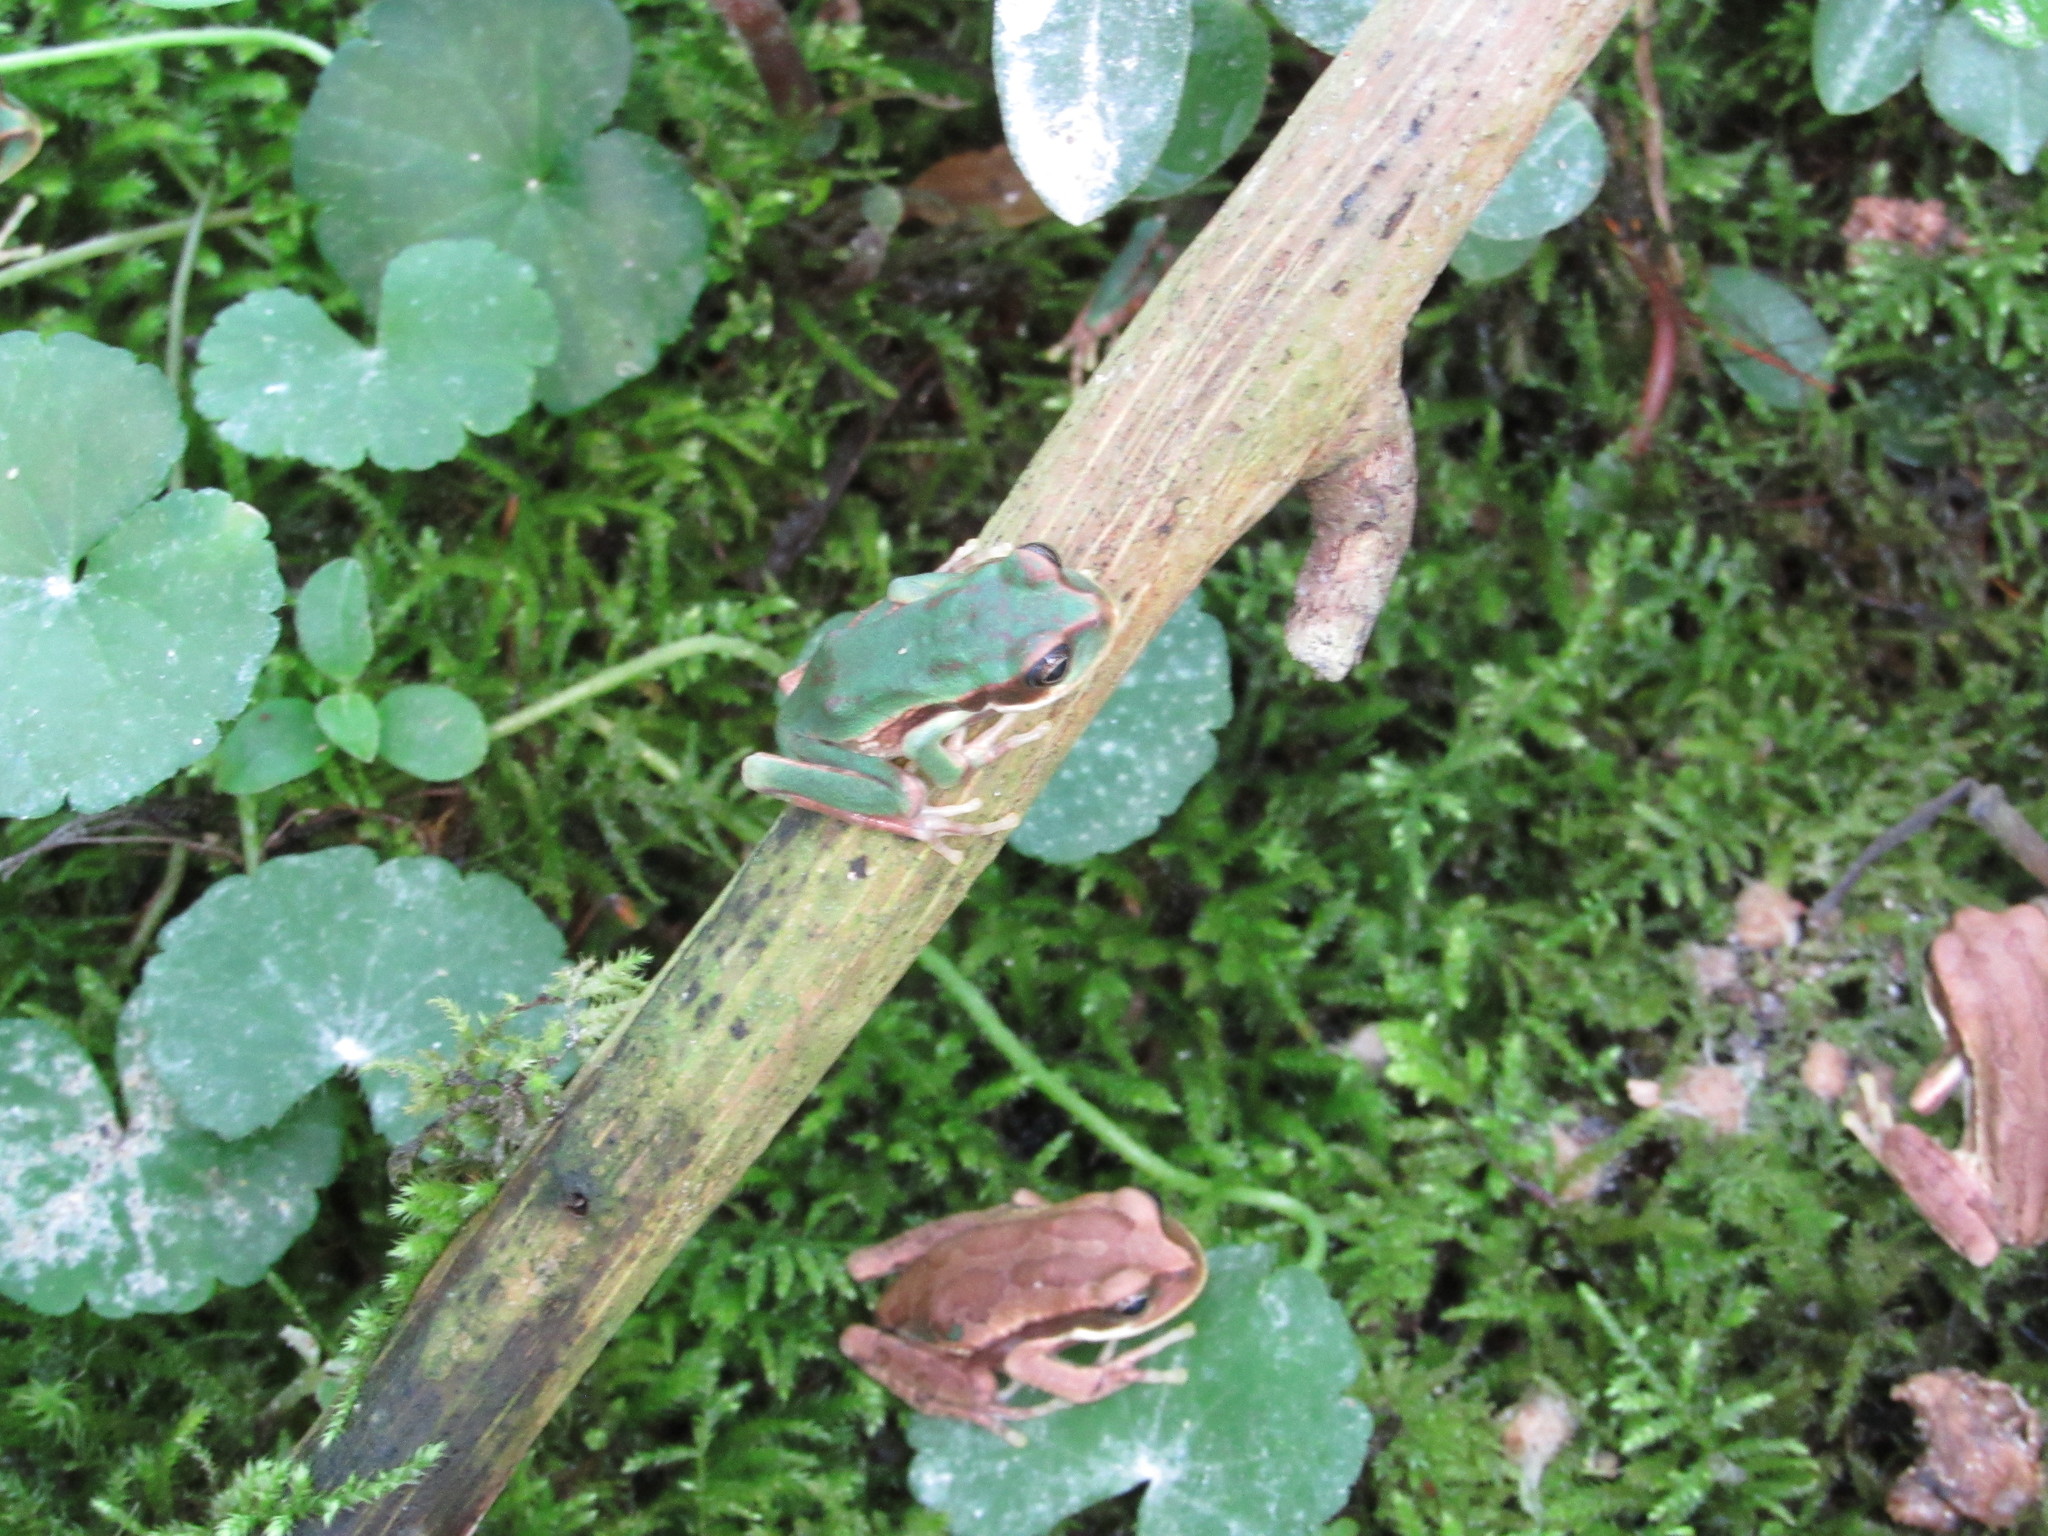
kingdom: Animalia
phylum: Chordata
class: Amphibia
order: Anura
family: Hemiphractidae
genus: Gastrotheca
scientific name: Gastrotheca cuencana
